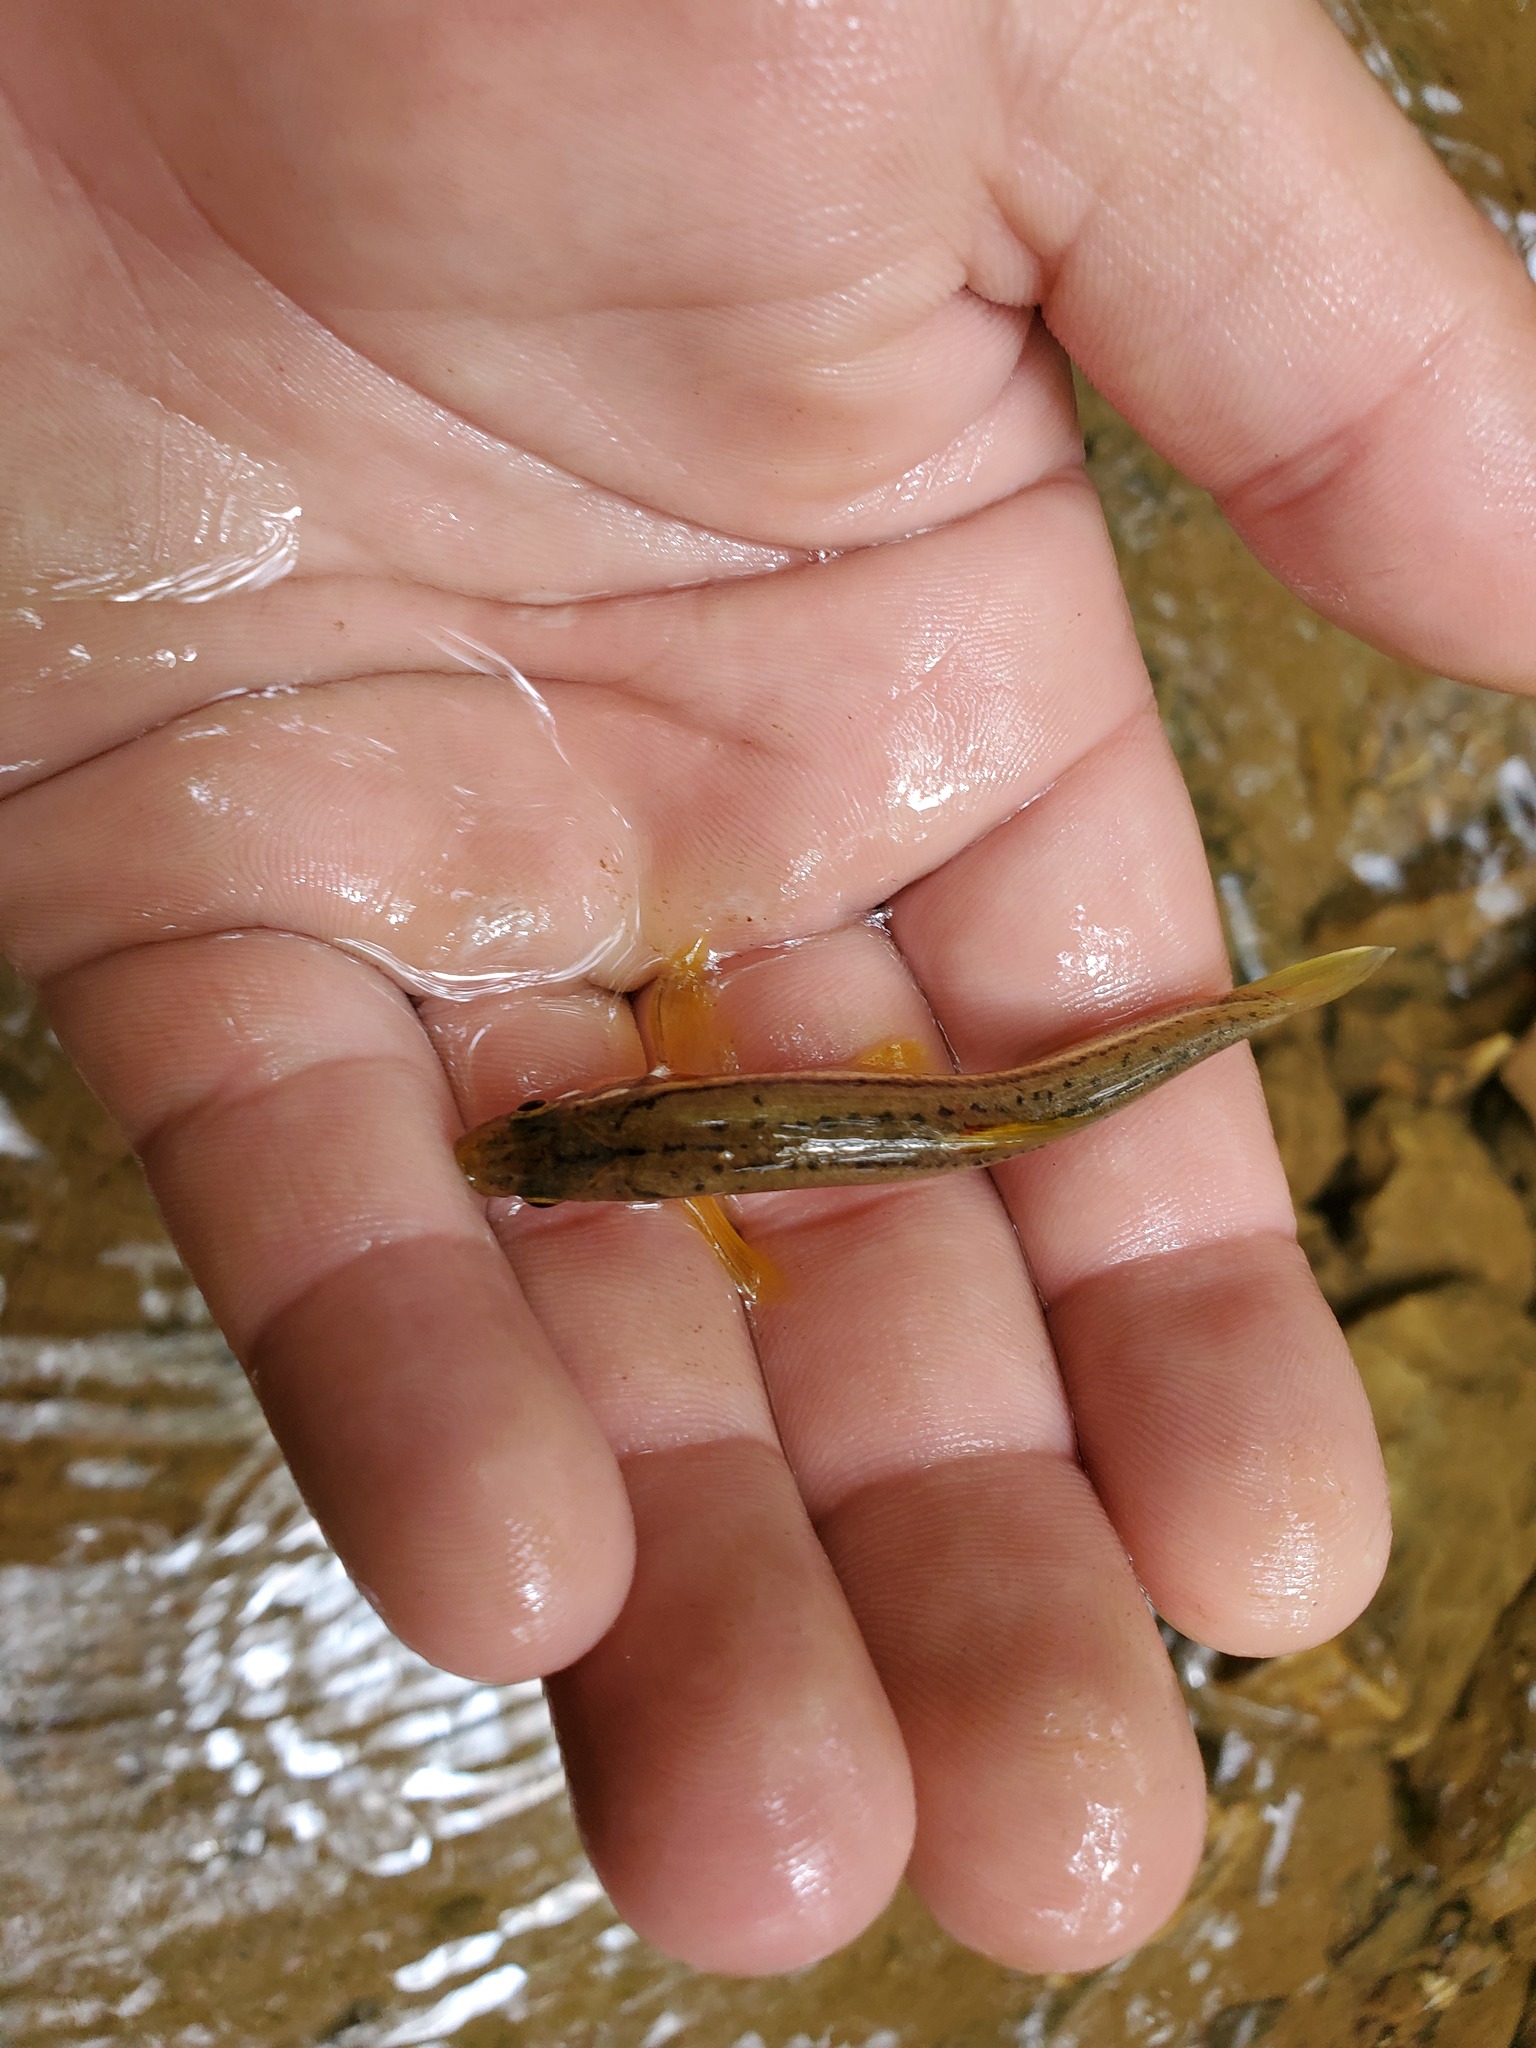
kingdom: Animalia
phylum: Chordata
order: Cypriniformes
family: Cyprinidae
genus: Chrosomus
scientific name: Chrosomus erythrogaster
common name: Southern redbelly dace
